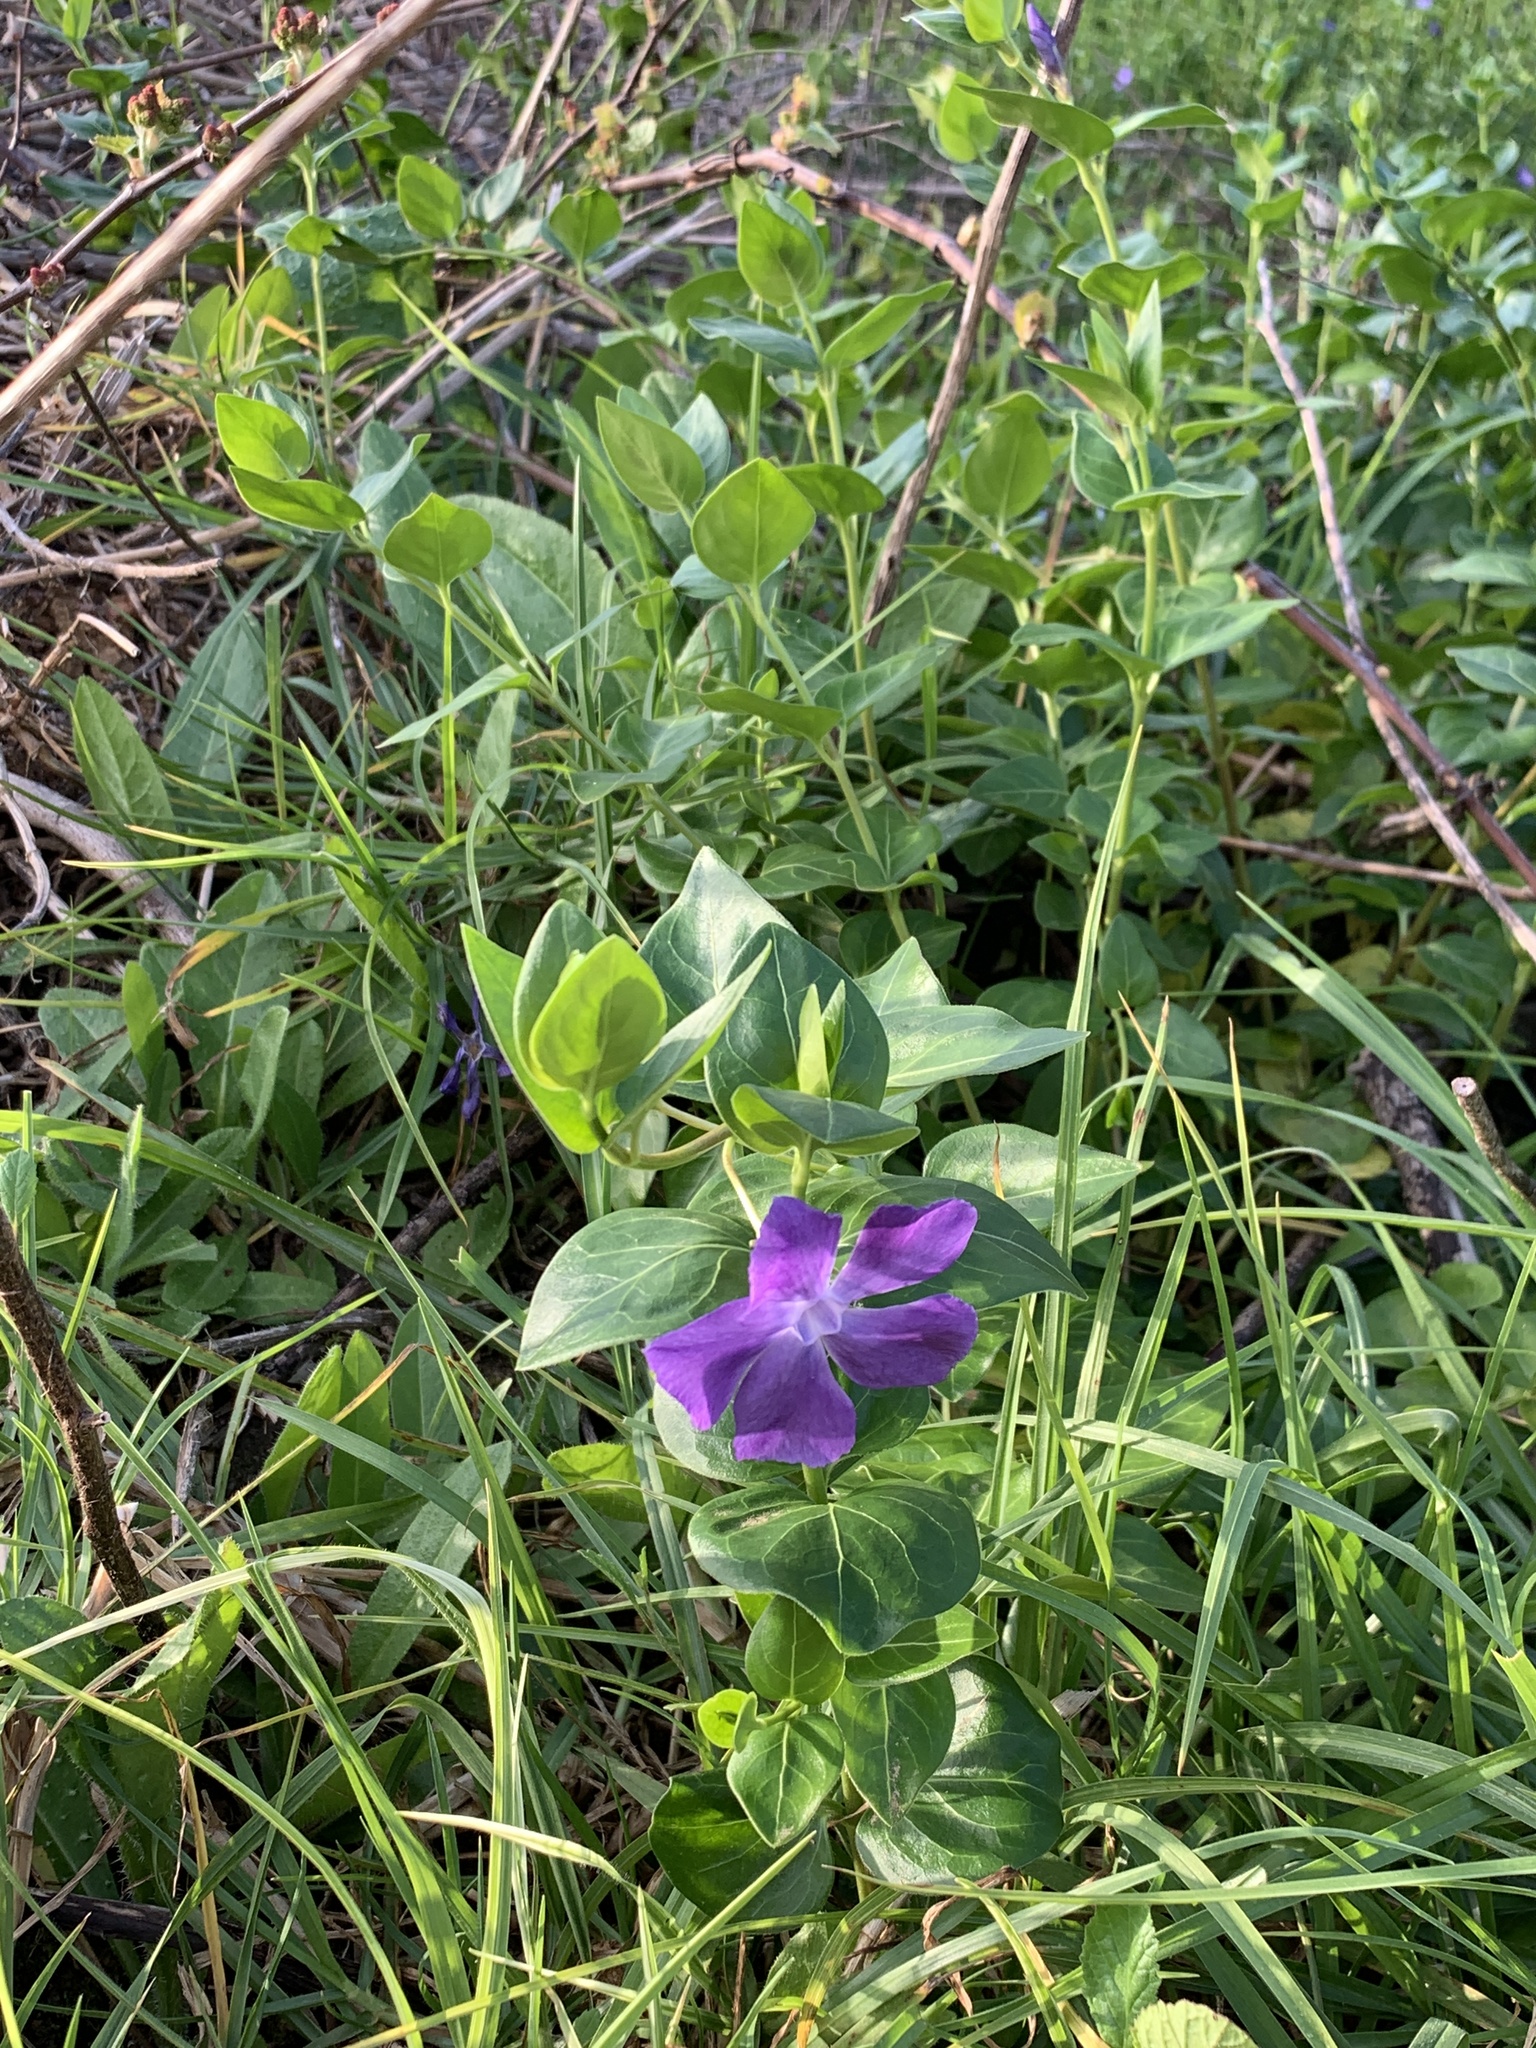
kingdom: Plantae
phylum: Tracheophyta
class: Magnoliopsida
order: Fabales
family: Fabaceae
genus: Vicia
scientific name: Vicia sativa
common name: Garden vetch
